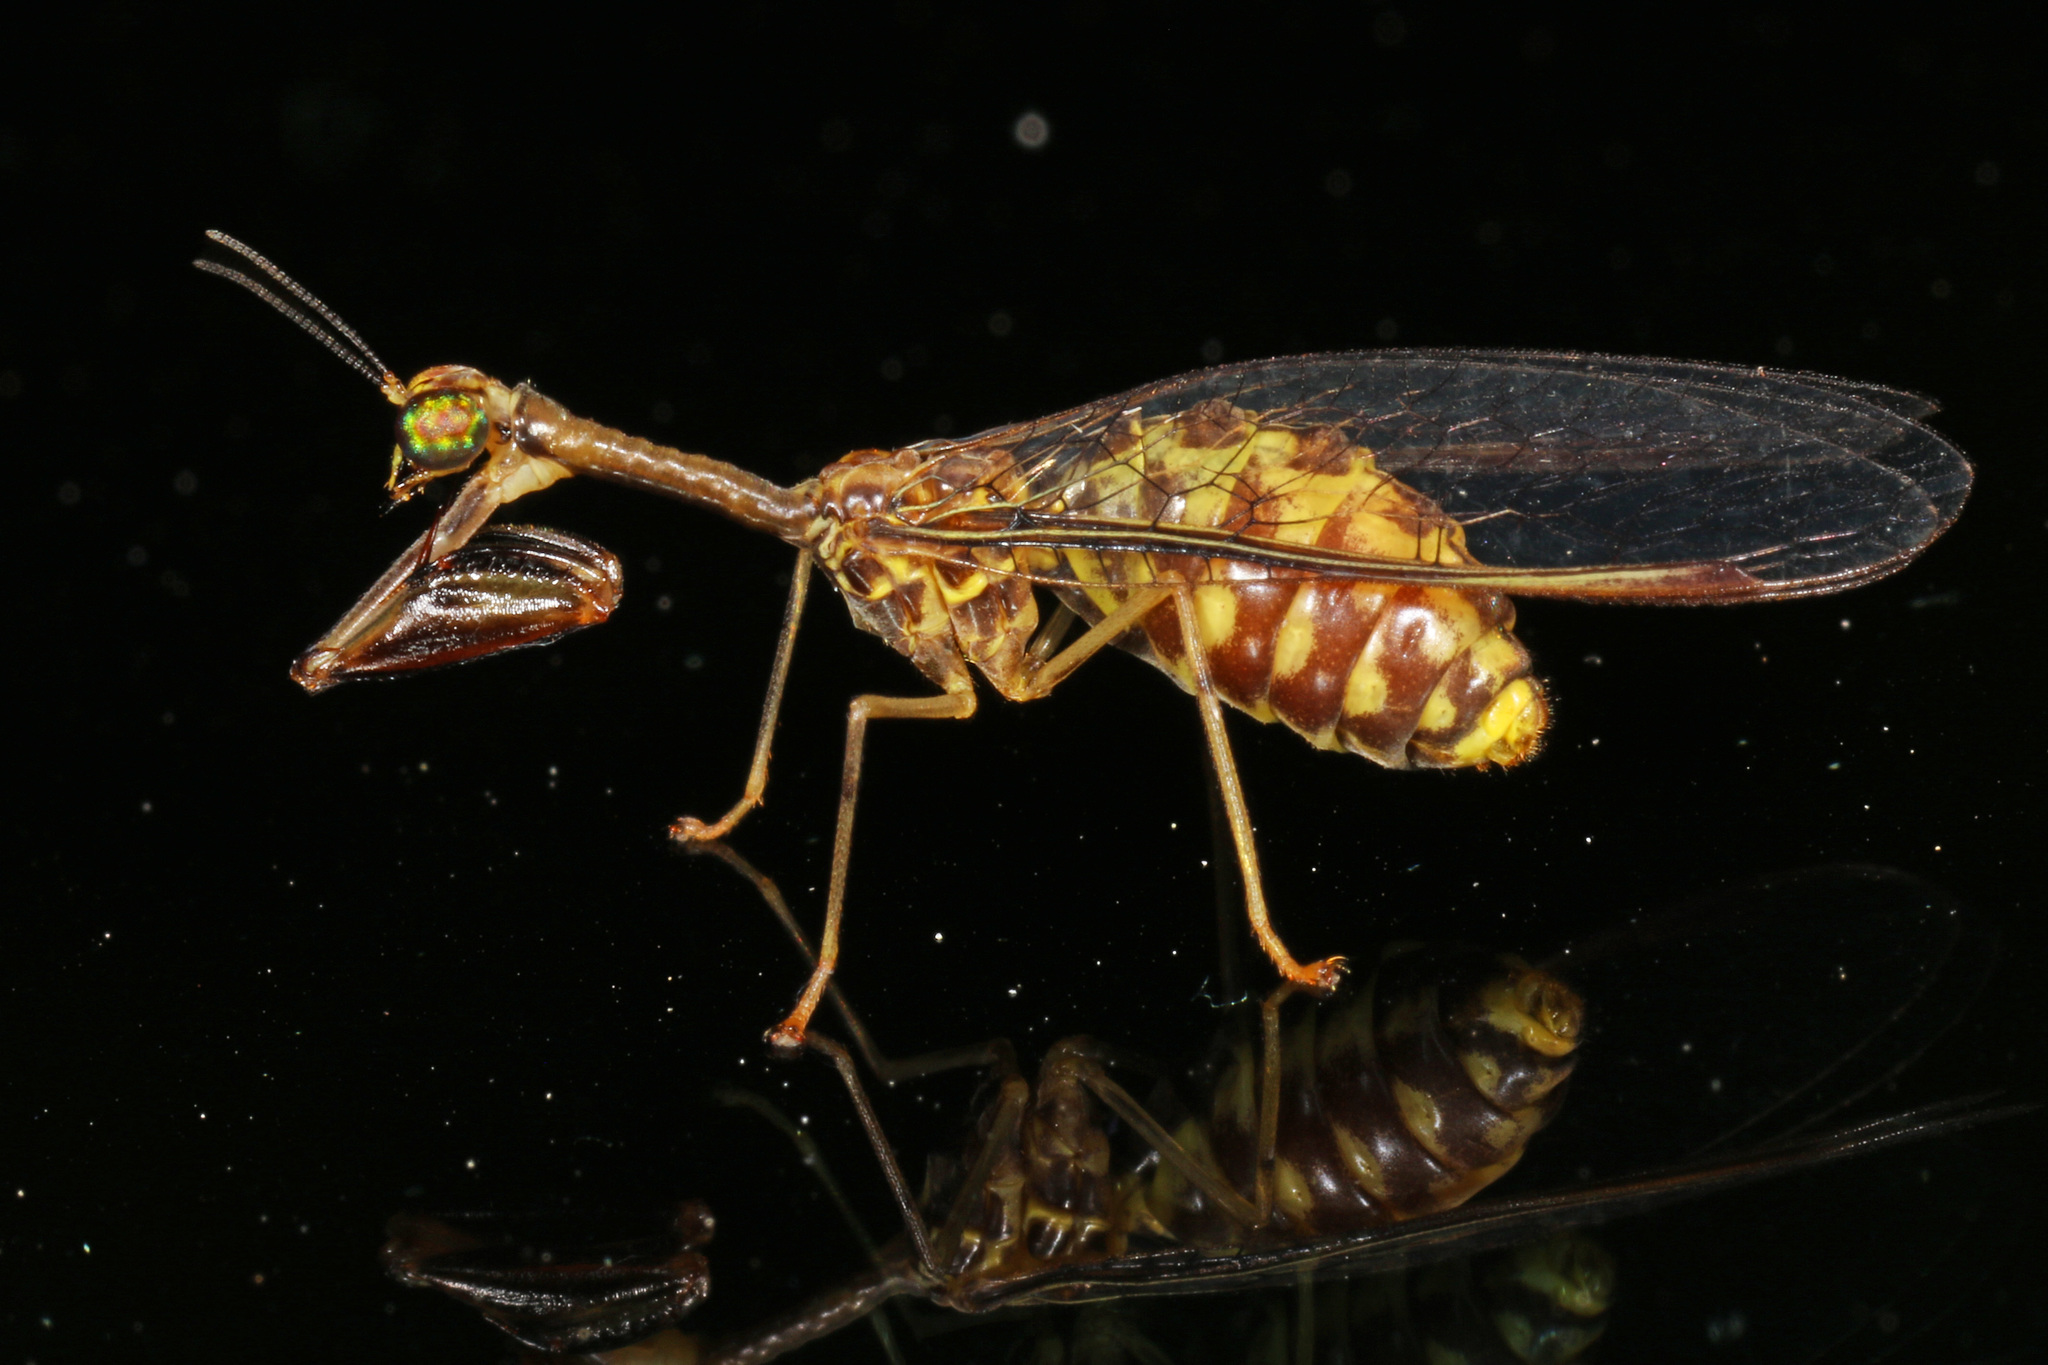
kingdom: Animalia
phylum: Arthropoda
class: Insecta
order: Neuroptera
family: Mantispidae
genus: Dicromantispa
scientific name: Dicromantispa sayi
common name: Say's mantidfly
